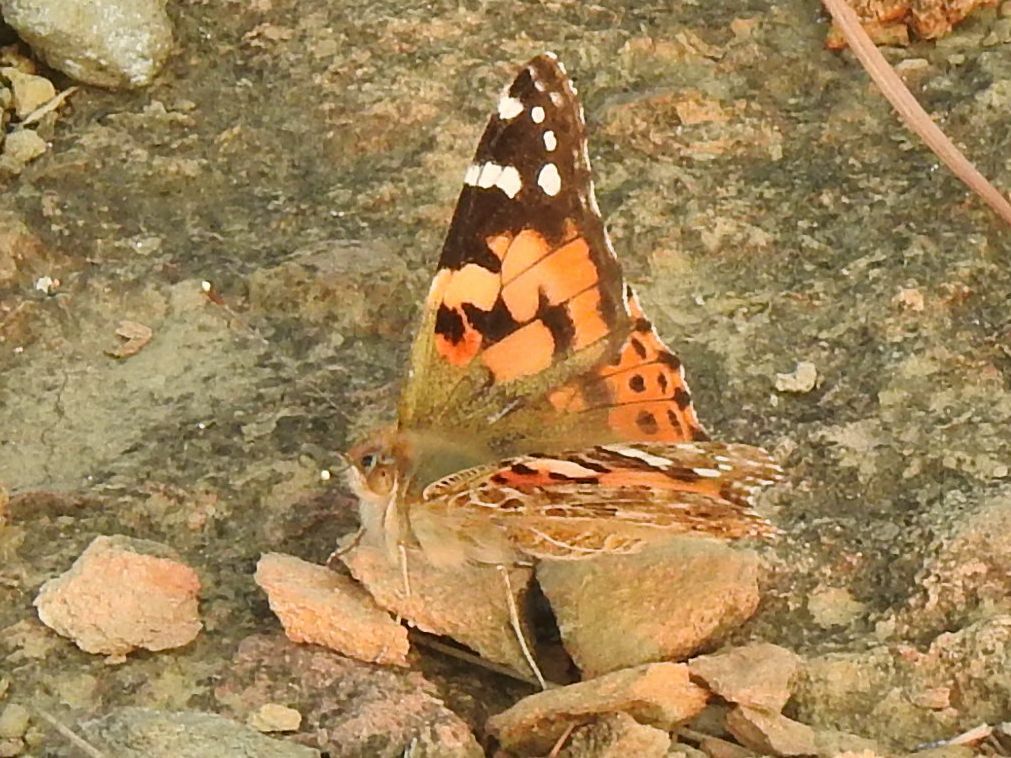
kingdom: Animalia
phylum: Arthropoda
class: Insecta
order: Lepidoptera
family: Nymphalidae
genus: Vanessa
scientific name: Vanessa cardui
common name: Painted lady
